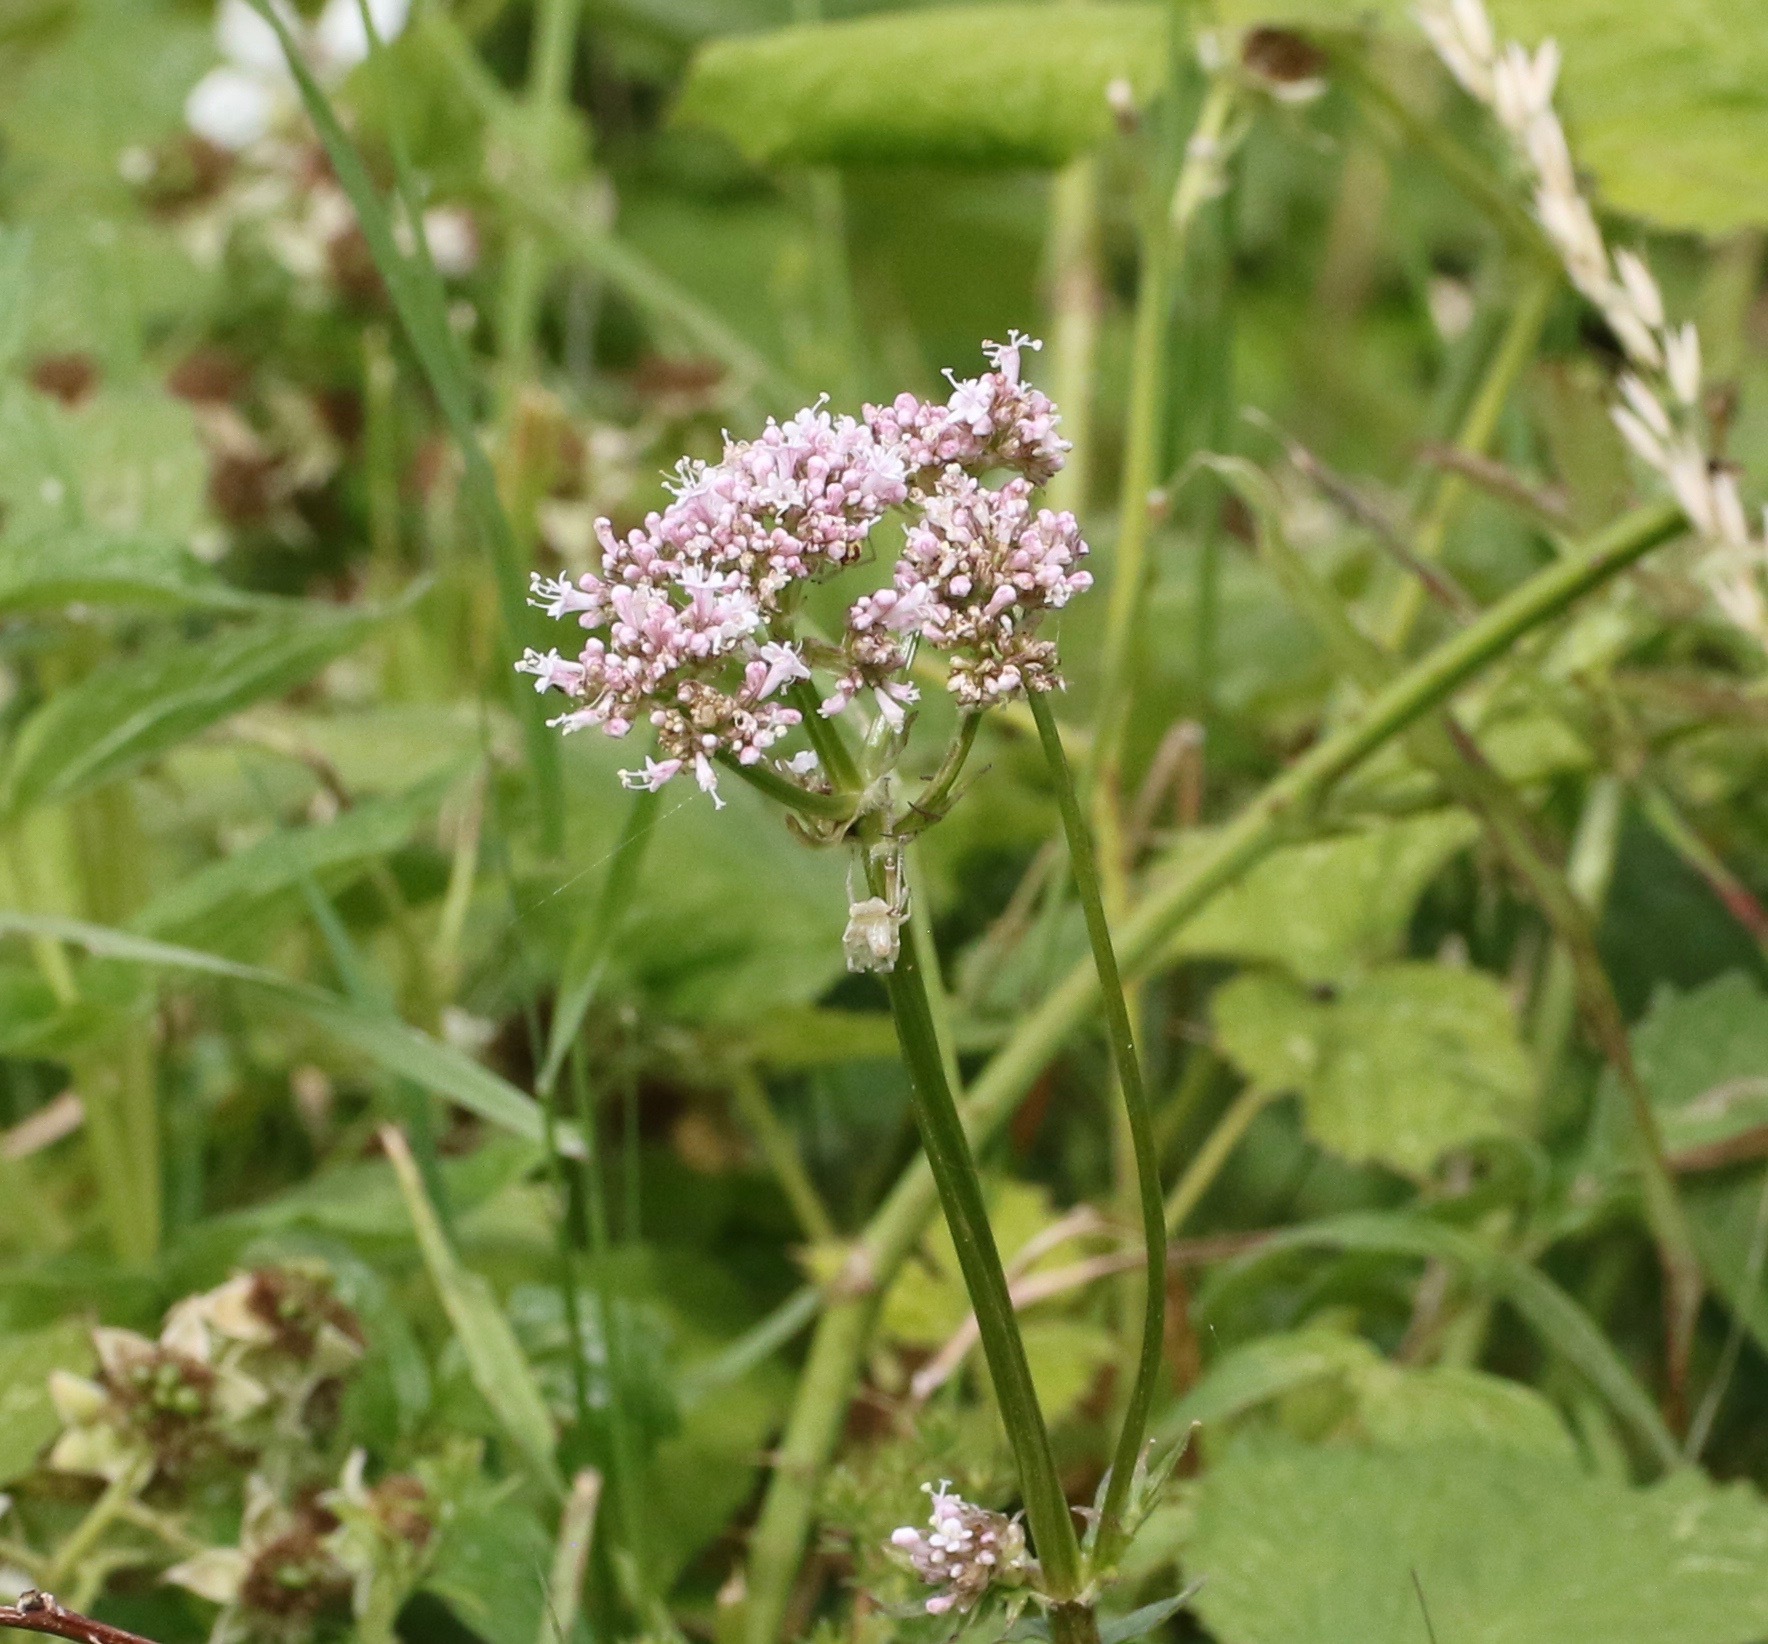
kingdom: Plantae
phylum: Tracheophyta
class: Magnoliopsida
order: Dipsacales
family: Caprifoliaceae
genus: Valeriana
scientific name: Valeriana officinalis
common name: Common valerian
